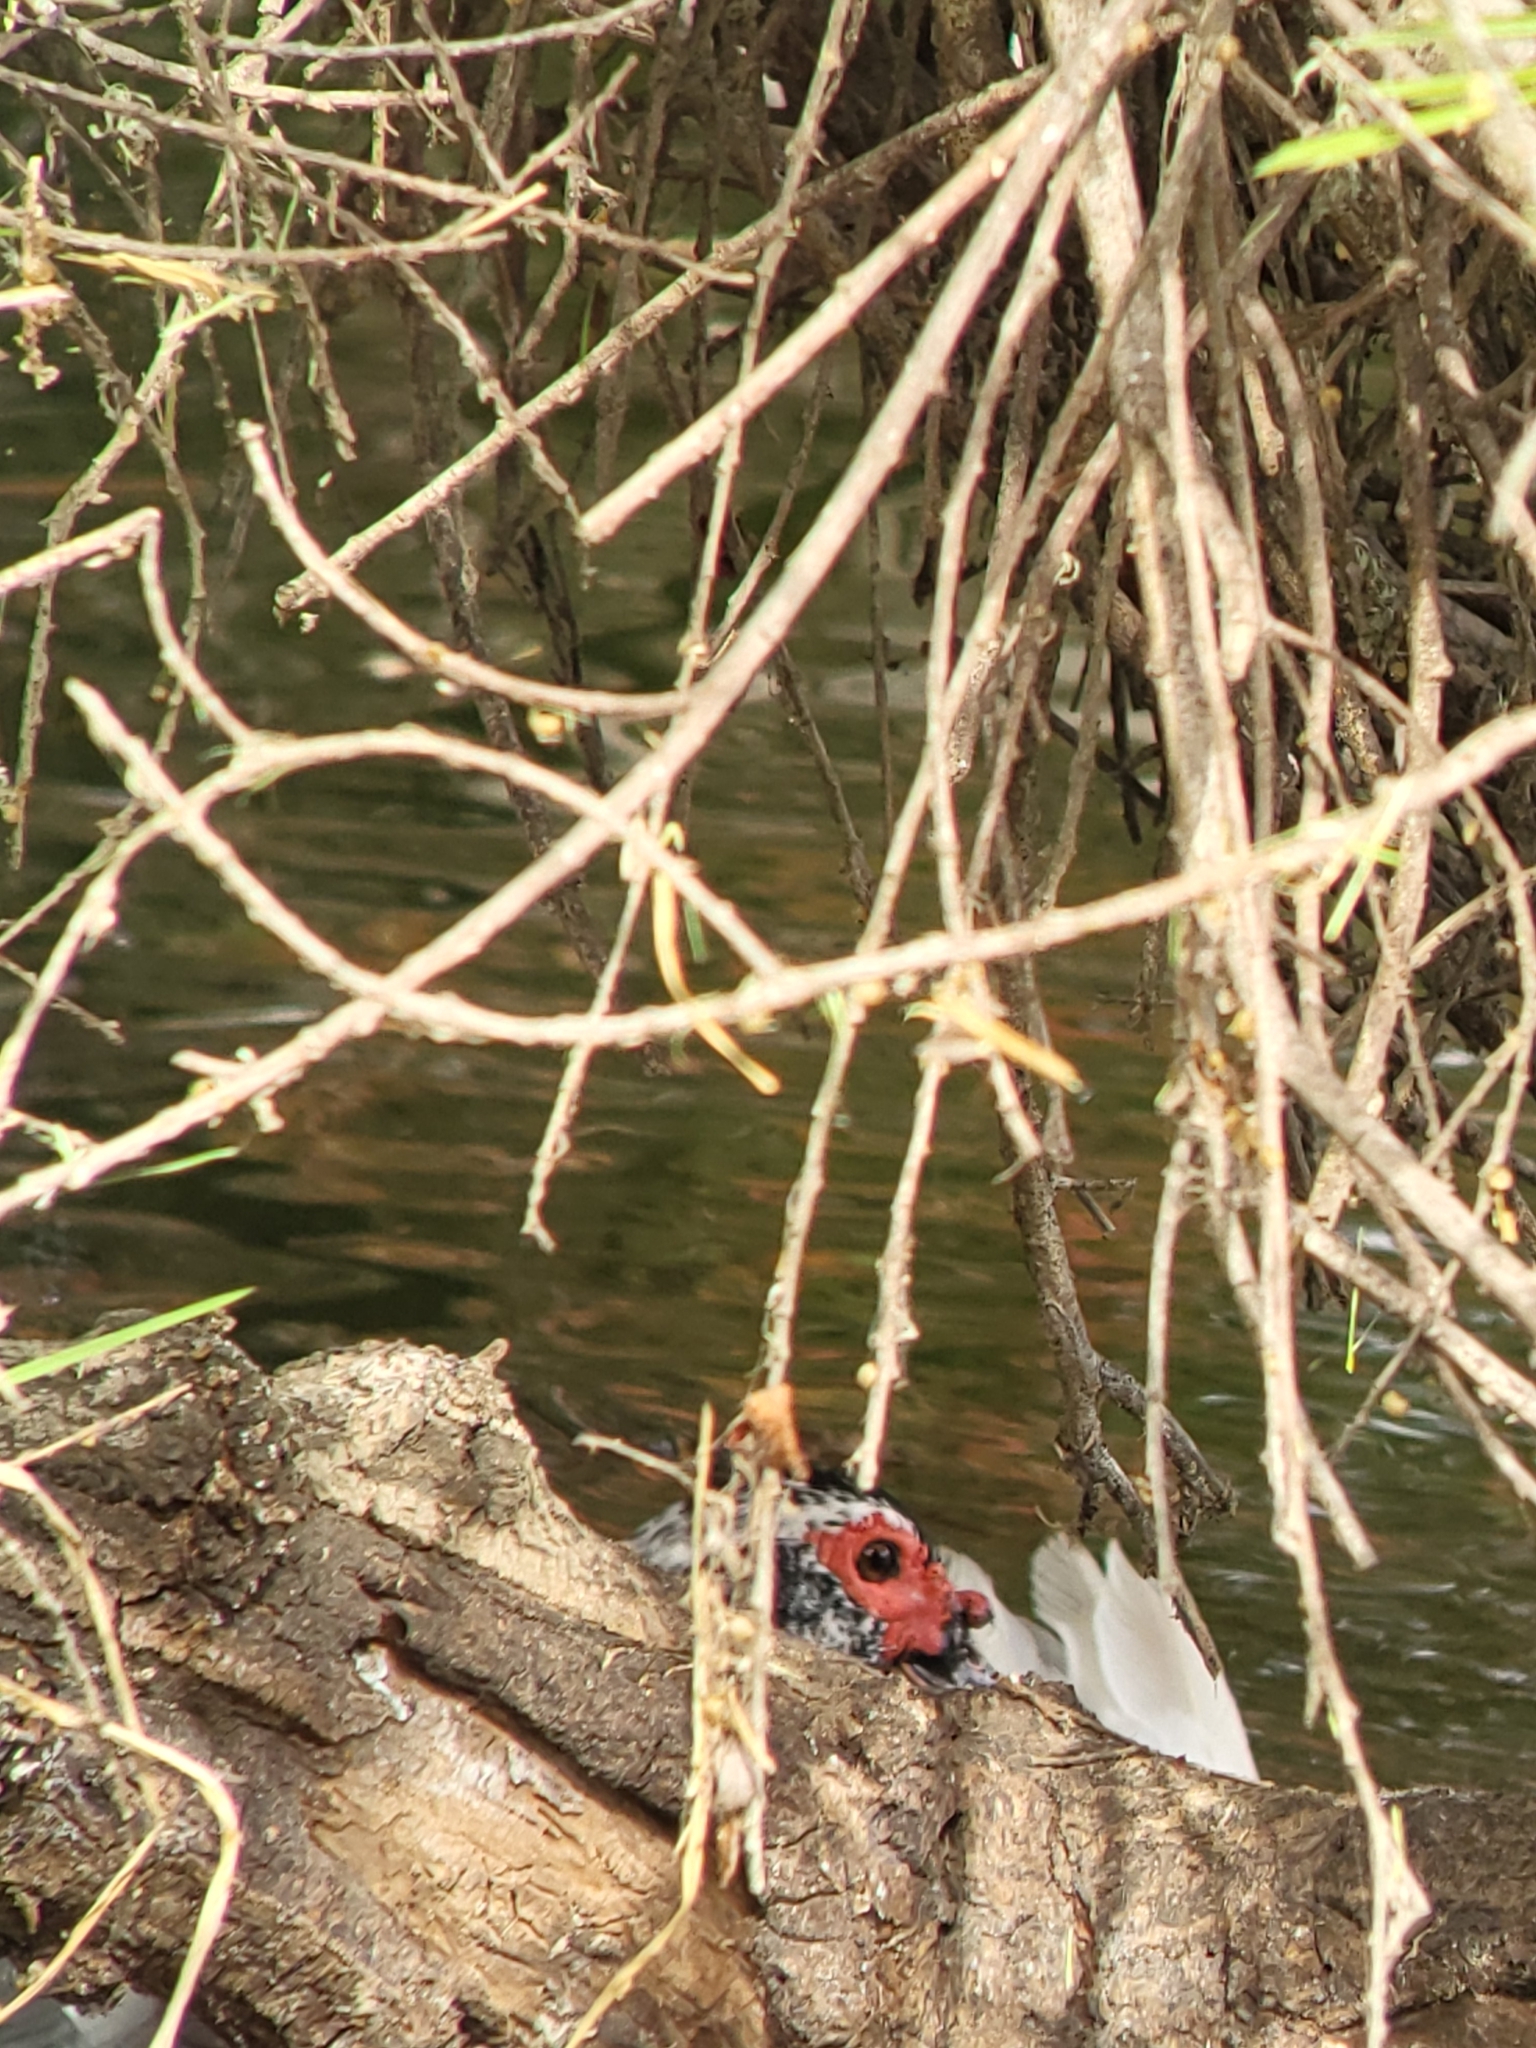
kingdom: Animalia
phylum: Chordata
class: Aves
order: Anseriformes
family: Anatidae
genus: Cairina
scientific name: Cairina moschata
